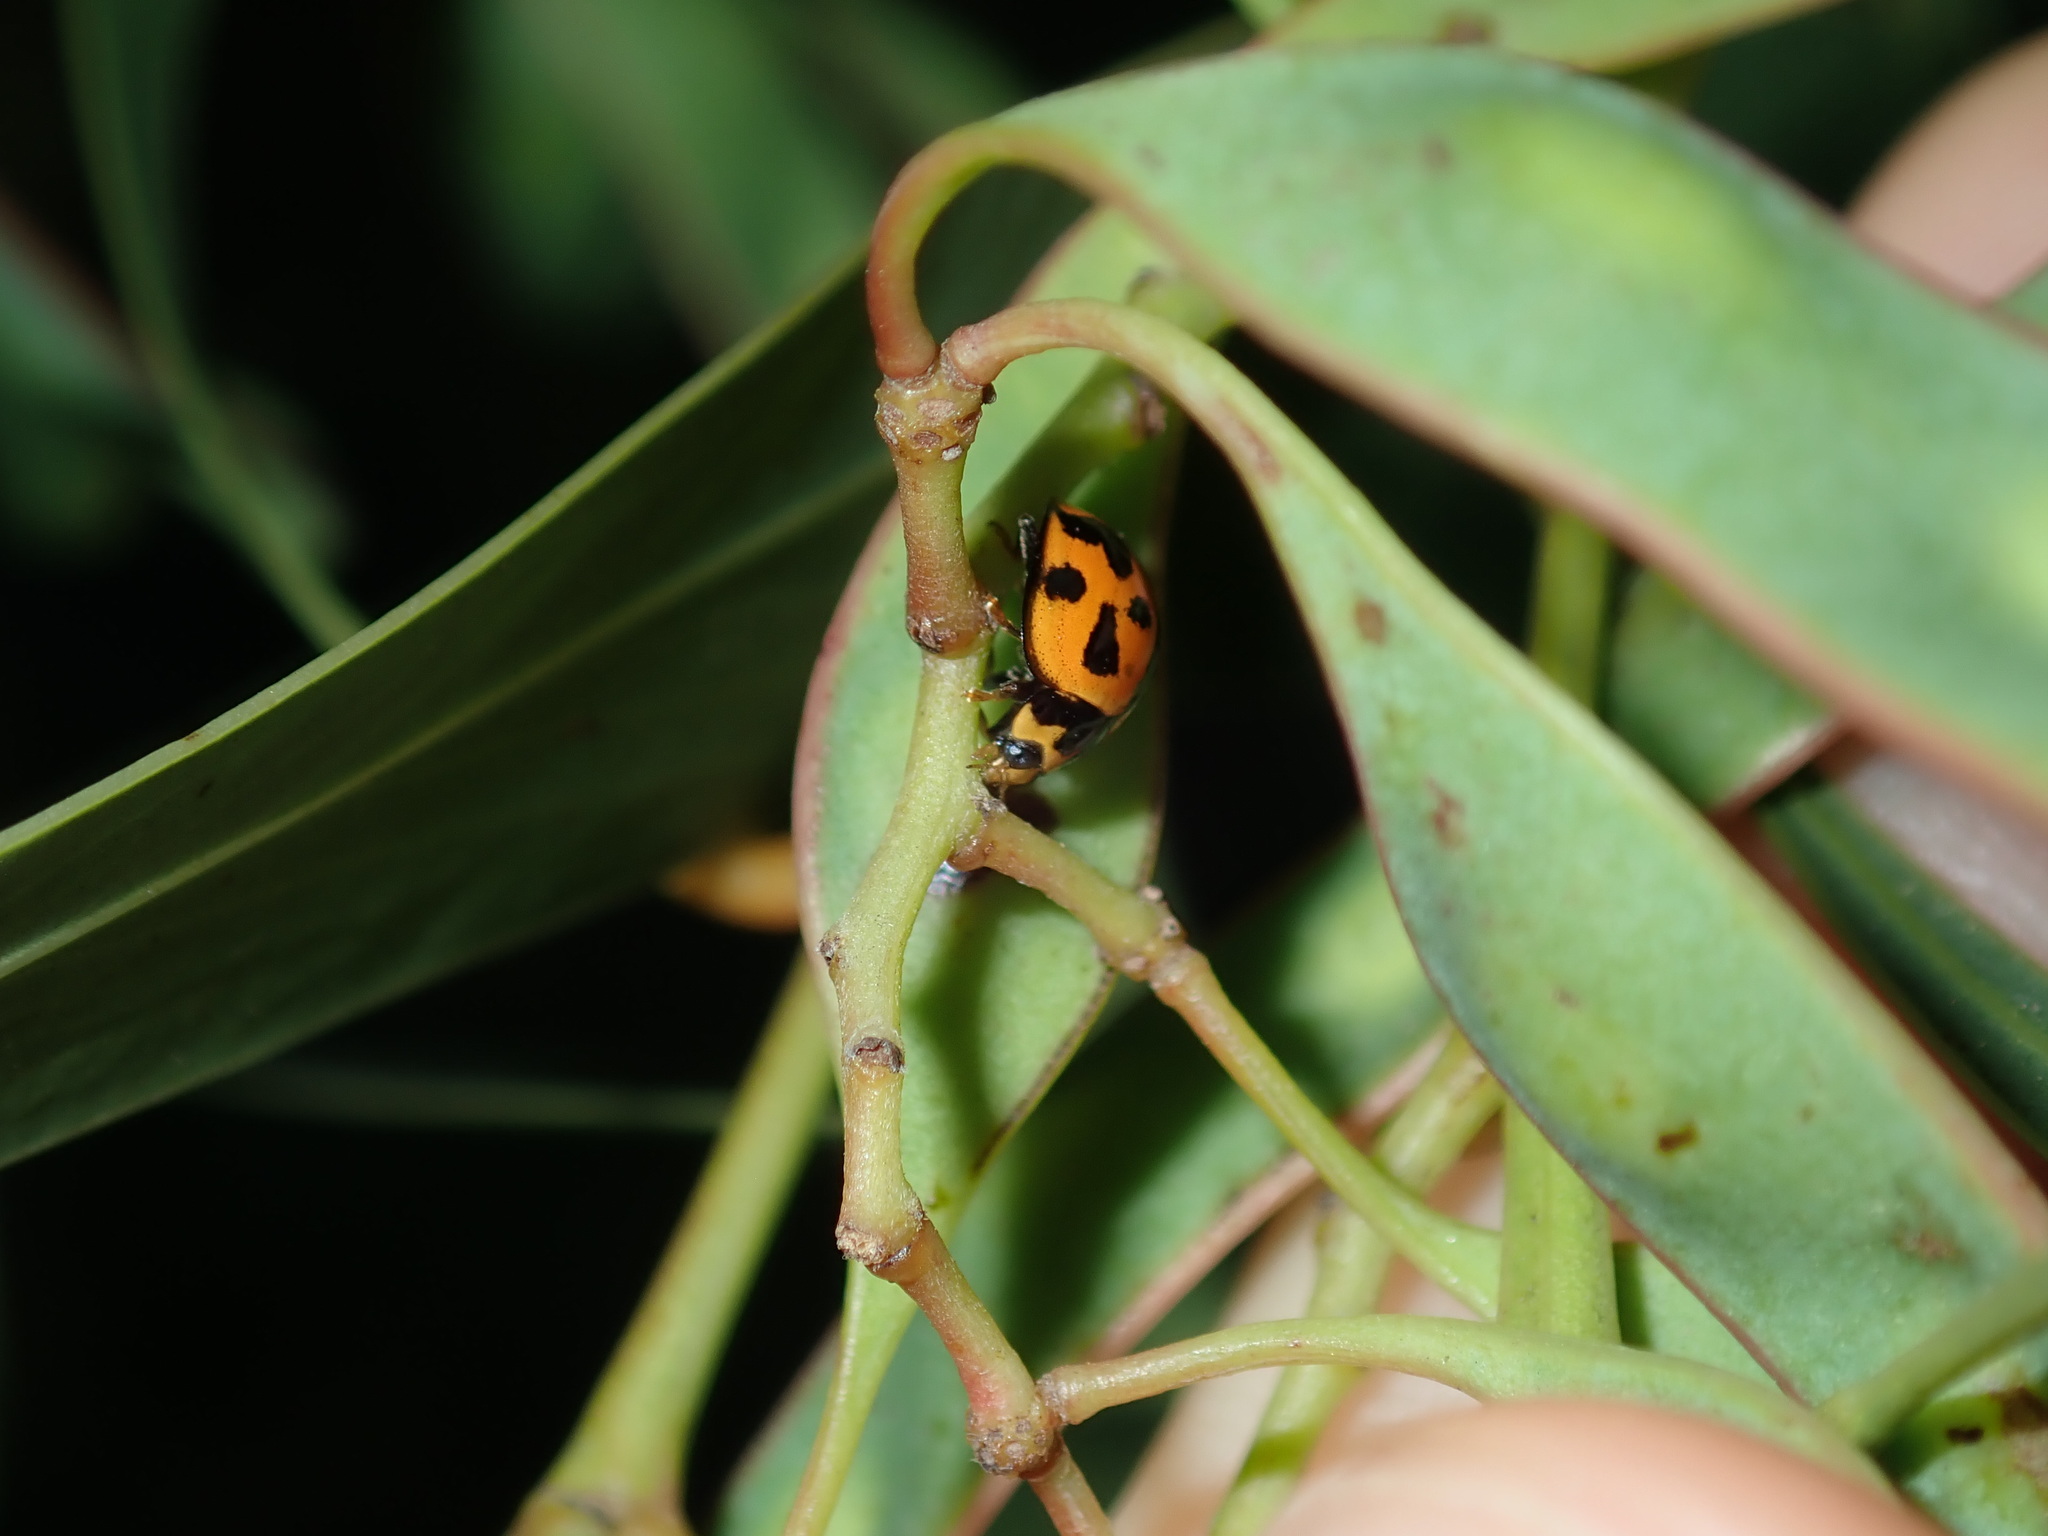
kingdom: Animalia
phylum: Arthropoda
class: Insecta
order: Coleoptera
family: Coccinellidae
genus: Coelophora
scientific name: Coelophora inaequalis
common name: Common australian lady beetle
